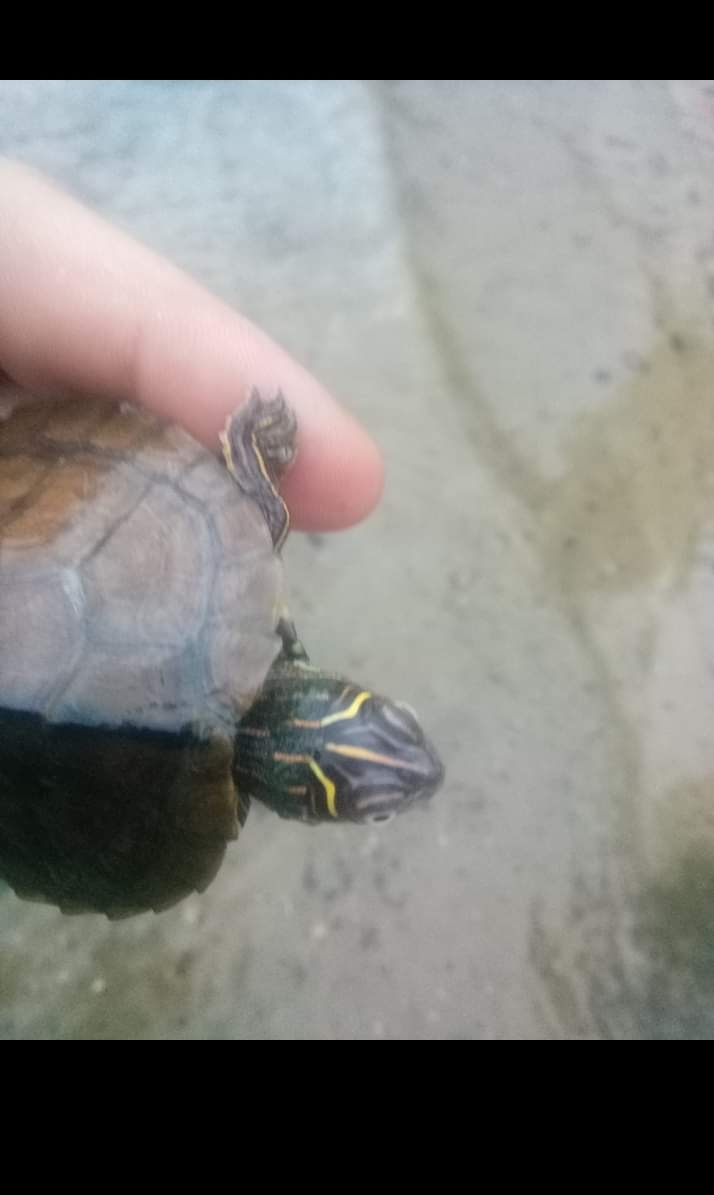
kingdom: Animalia
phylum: Chordata
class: Testudines
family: Emydidae
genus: Graptemys
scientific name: Graptemys pseudogeographica
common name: False map turtle
